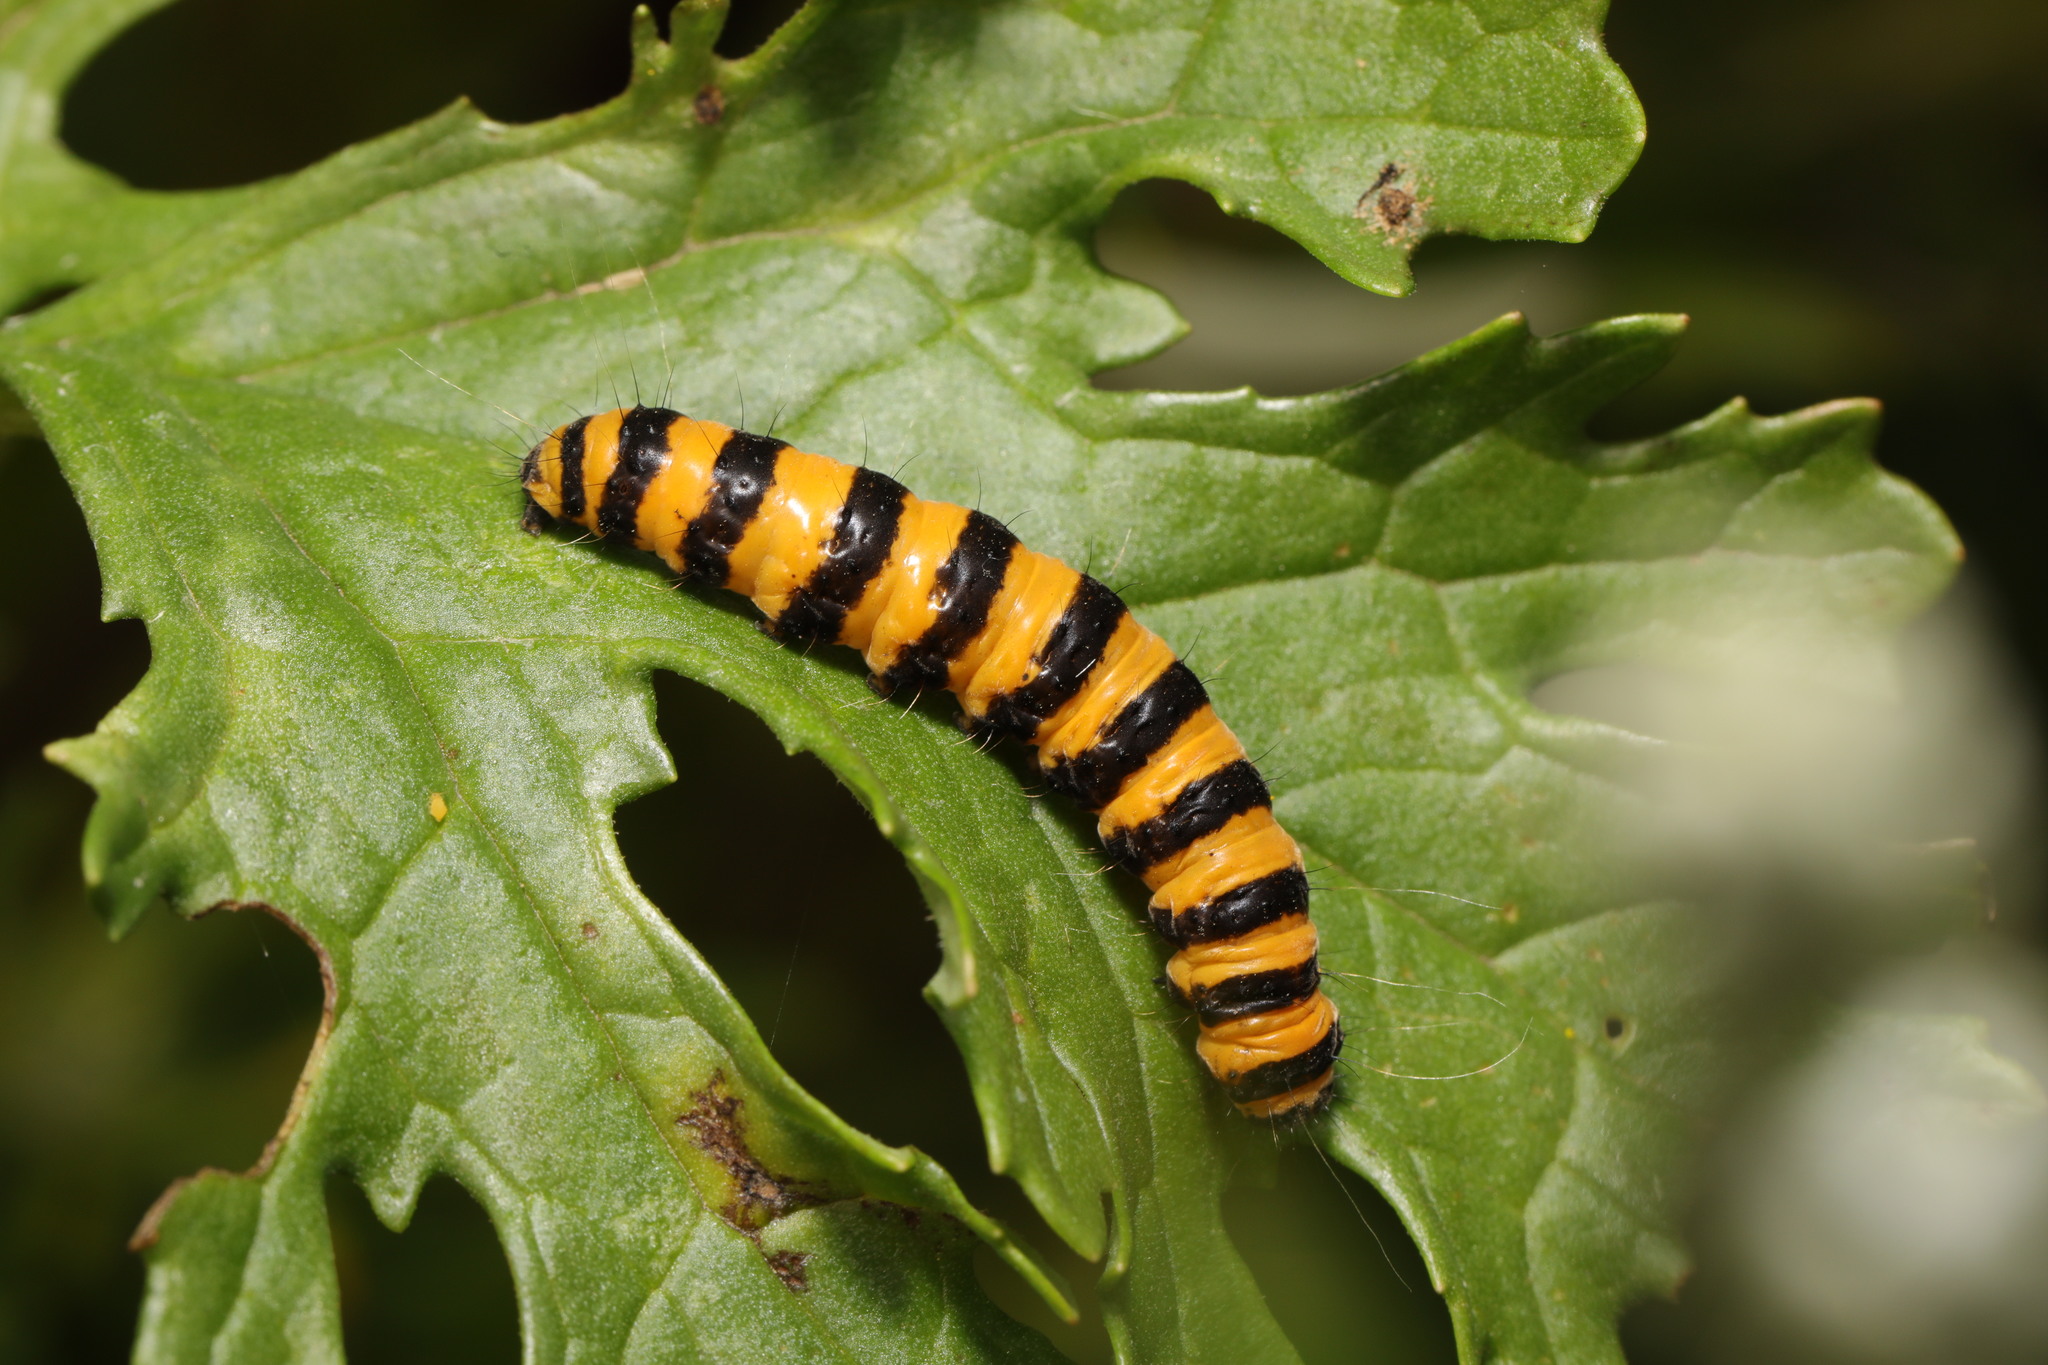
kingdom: Animalia
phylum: Arthropoda
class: Insecta
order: Lepidoptera
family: Erebidae
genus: Tyria
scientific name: Tyria jacobaeae
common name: Cinnabar
